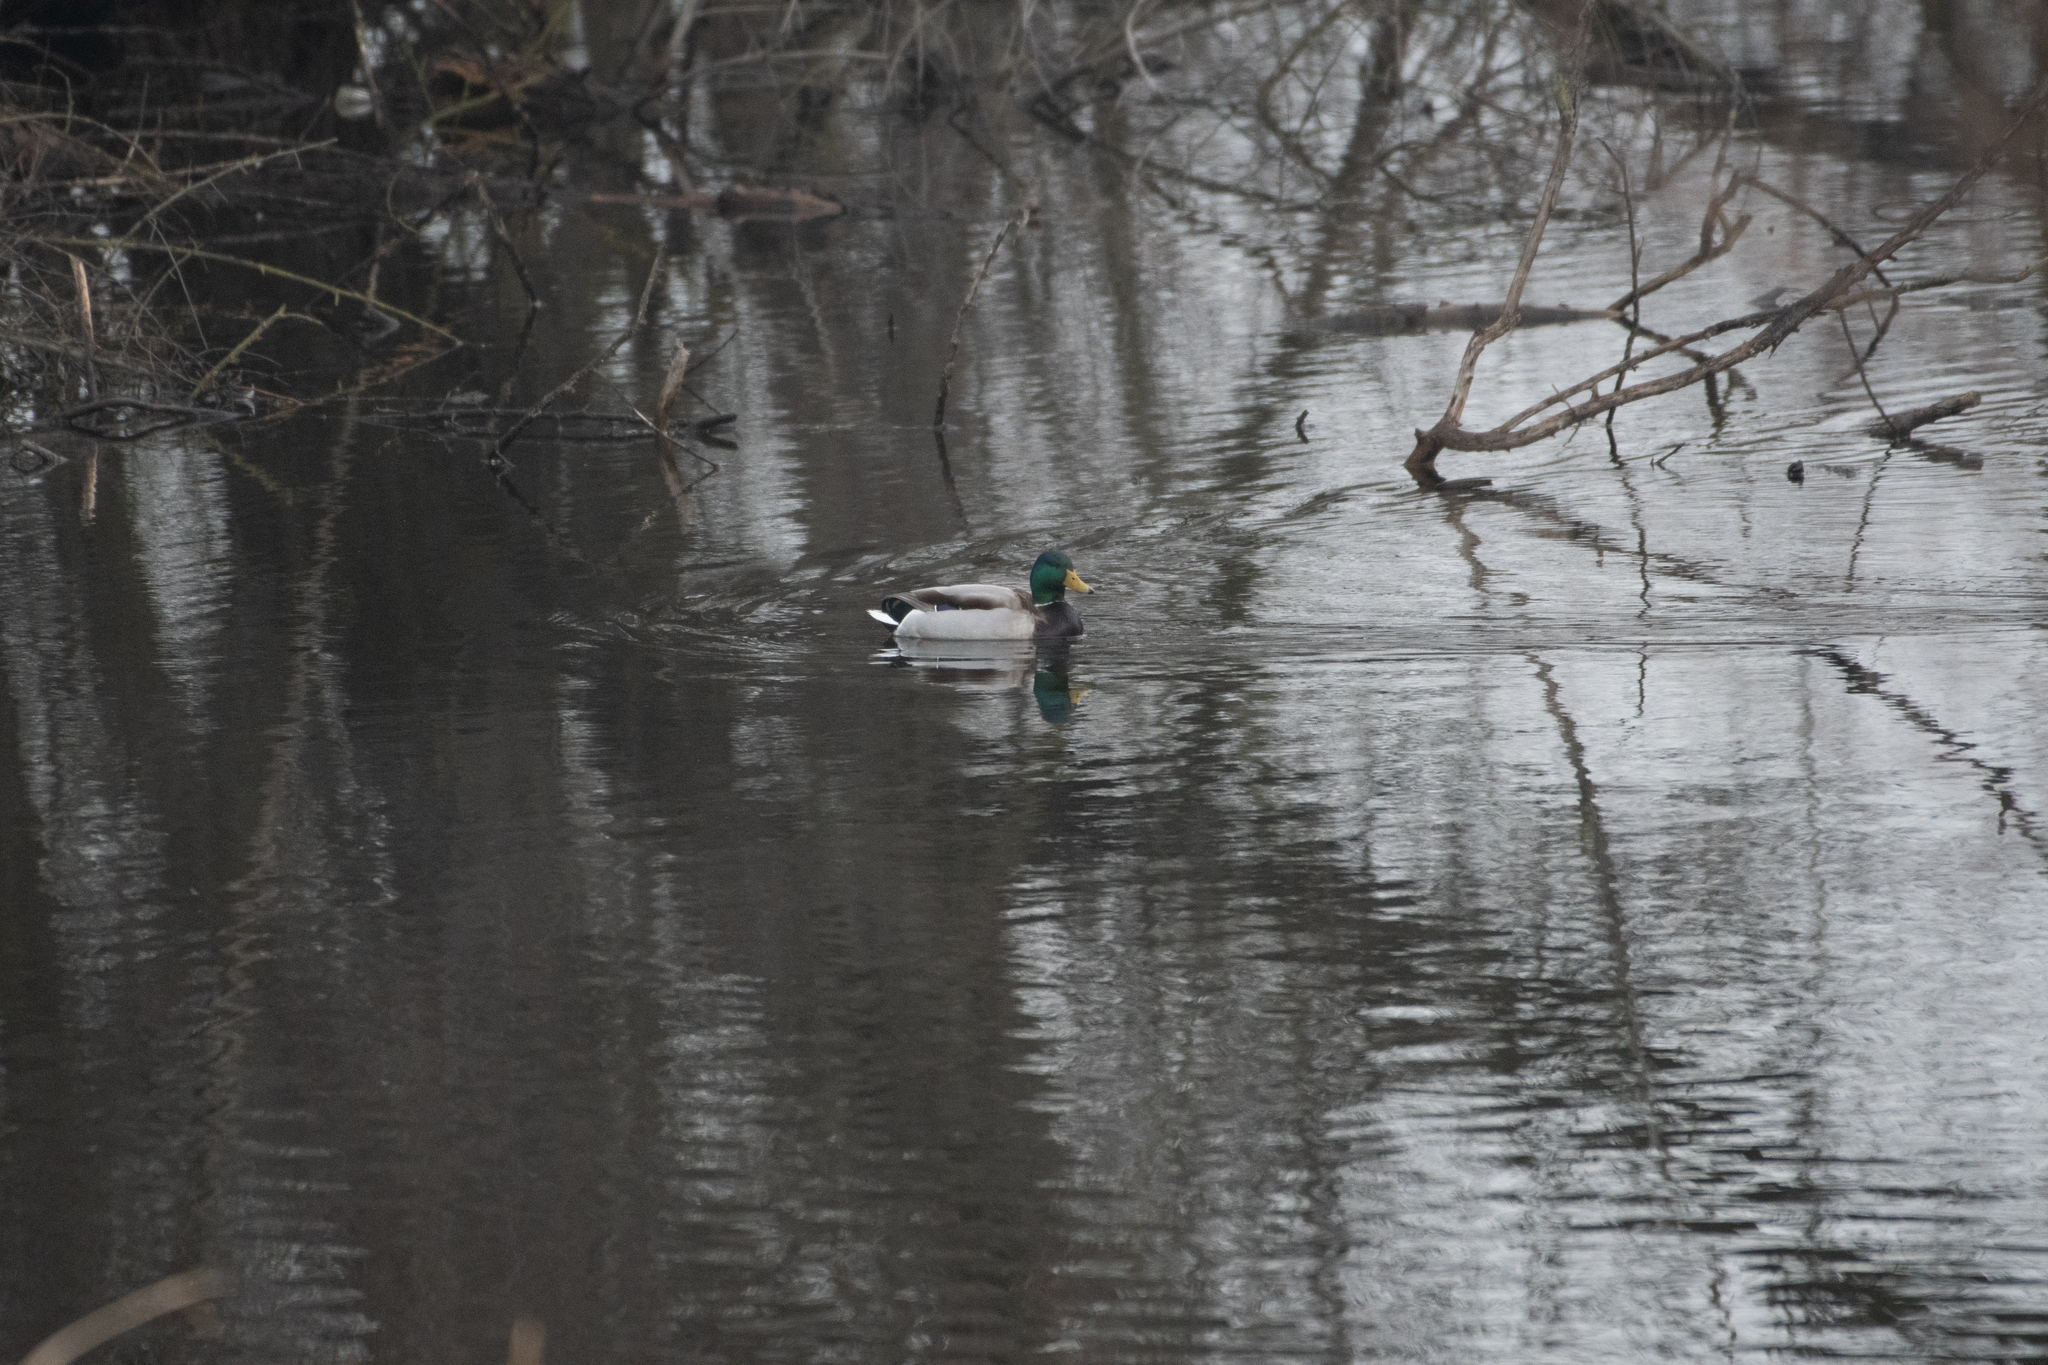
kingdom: Animalia
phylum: Chordata
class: Aves
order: Anseriformes
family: Anatidae
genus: Anas
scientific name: Anas platyrhynchos
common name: Mallard
